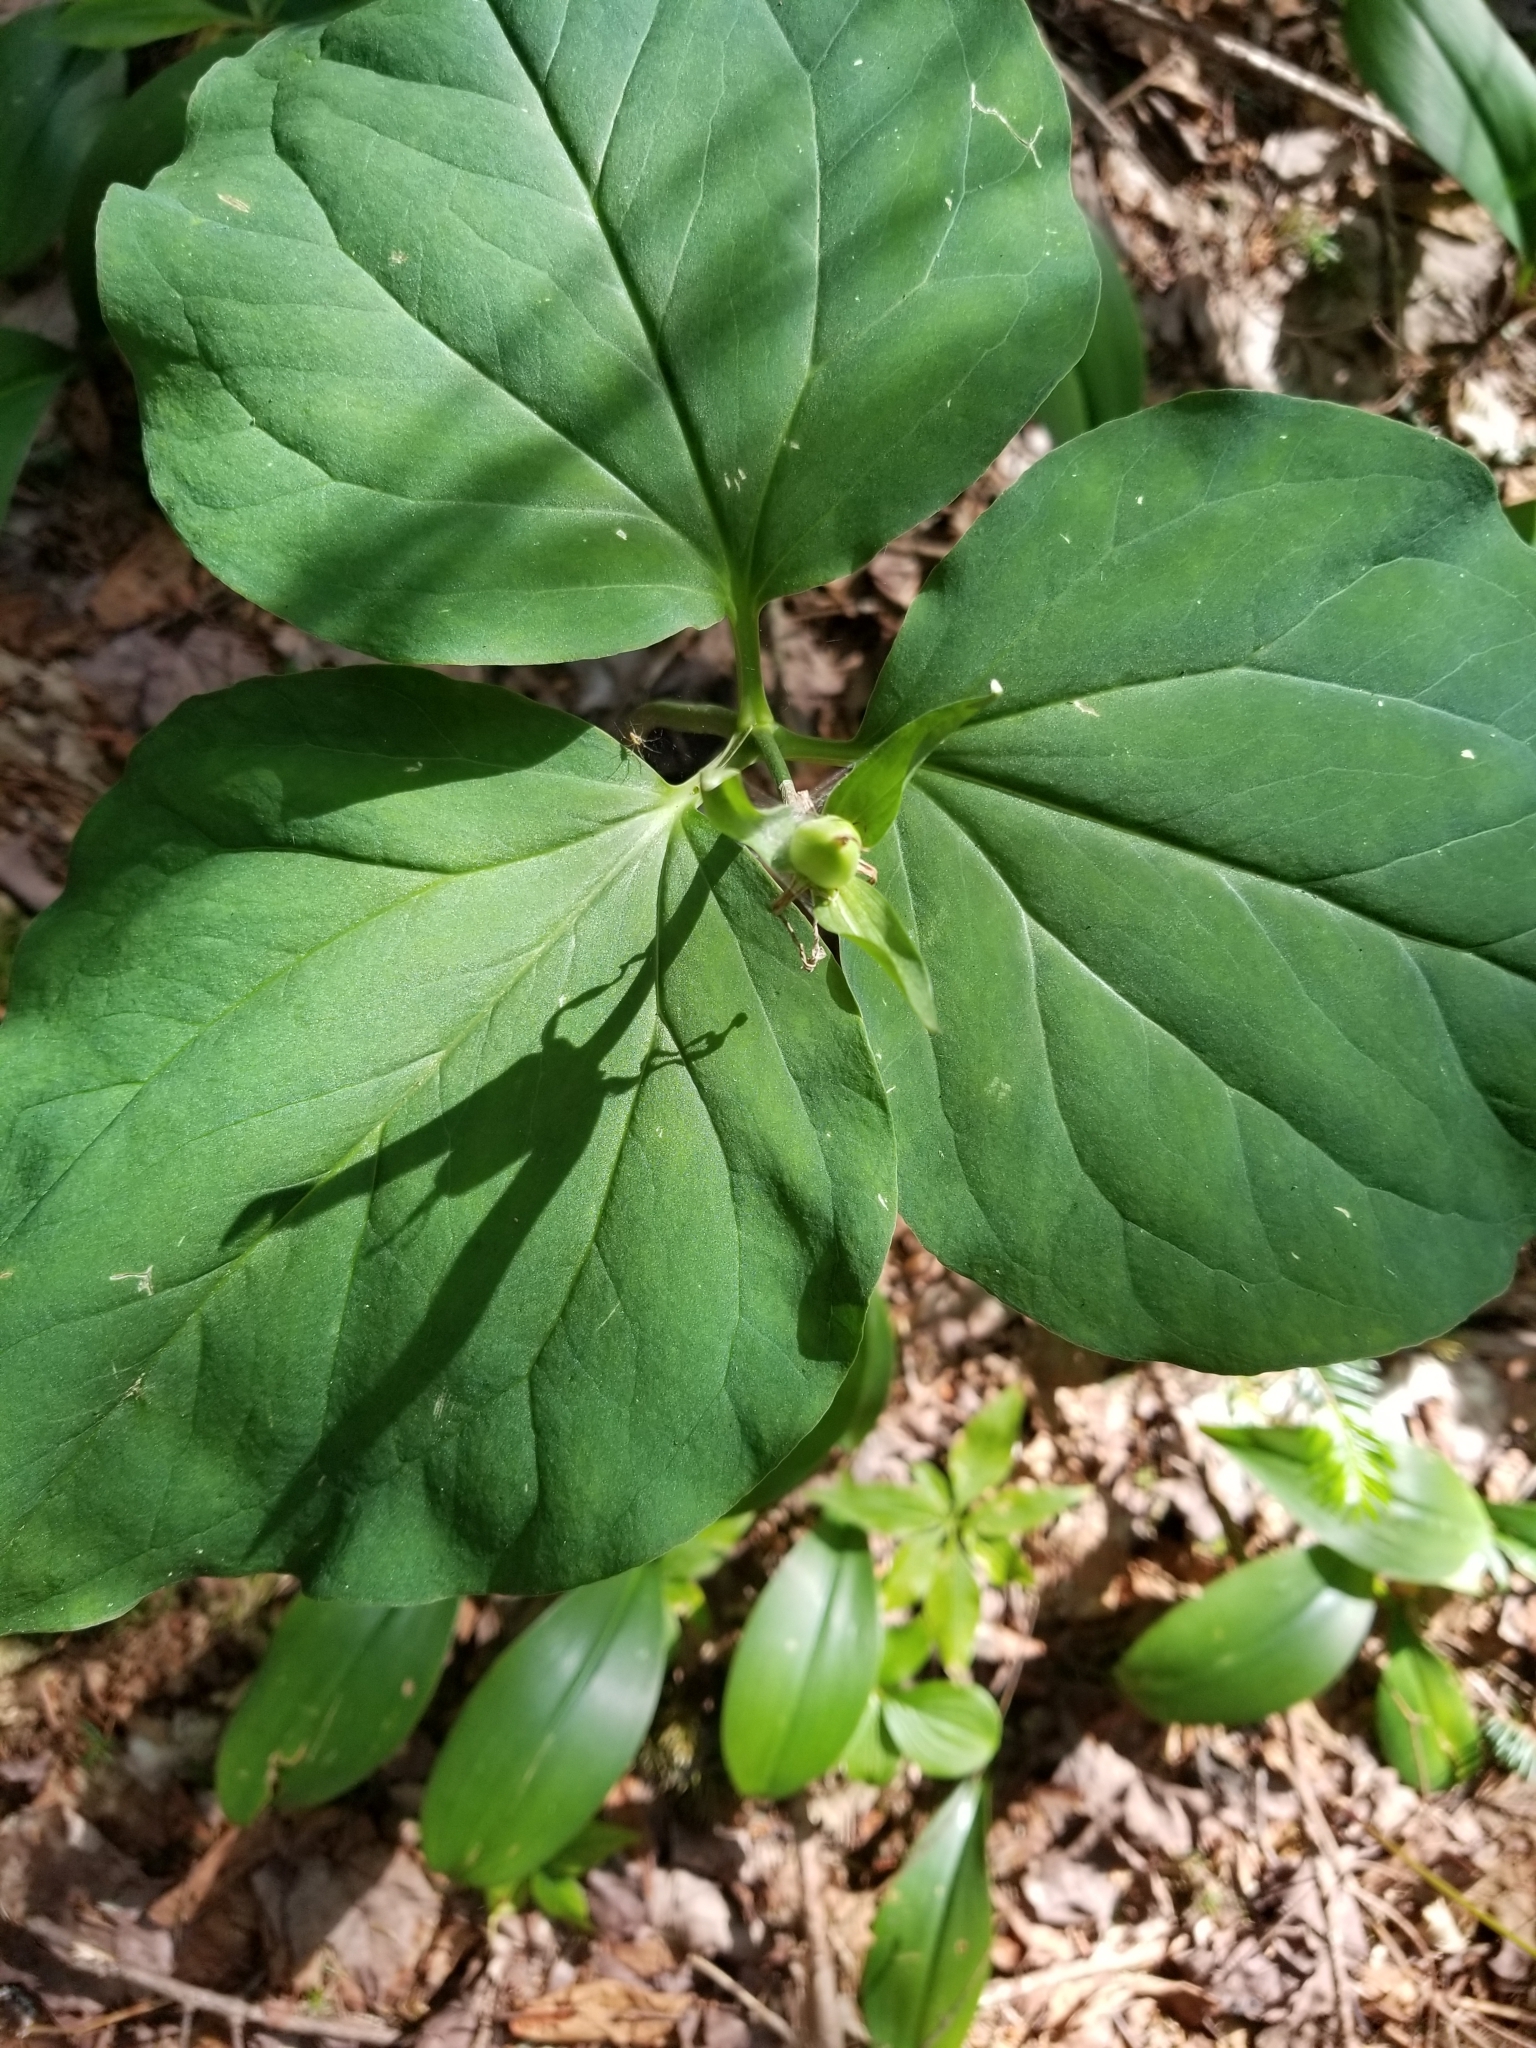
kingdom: Plantae
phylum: Tracheophyta
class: Liliopsida
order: Liliales
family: Melanthiaceae
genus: Trillium
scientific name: Trillium undulatum
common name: Paint trillium
